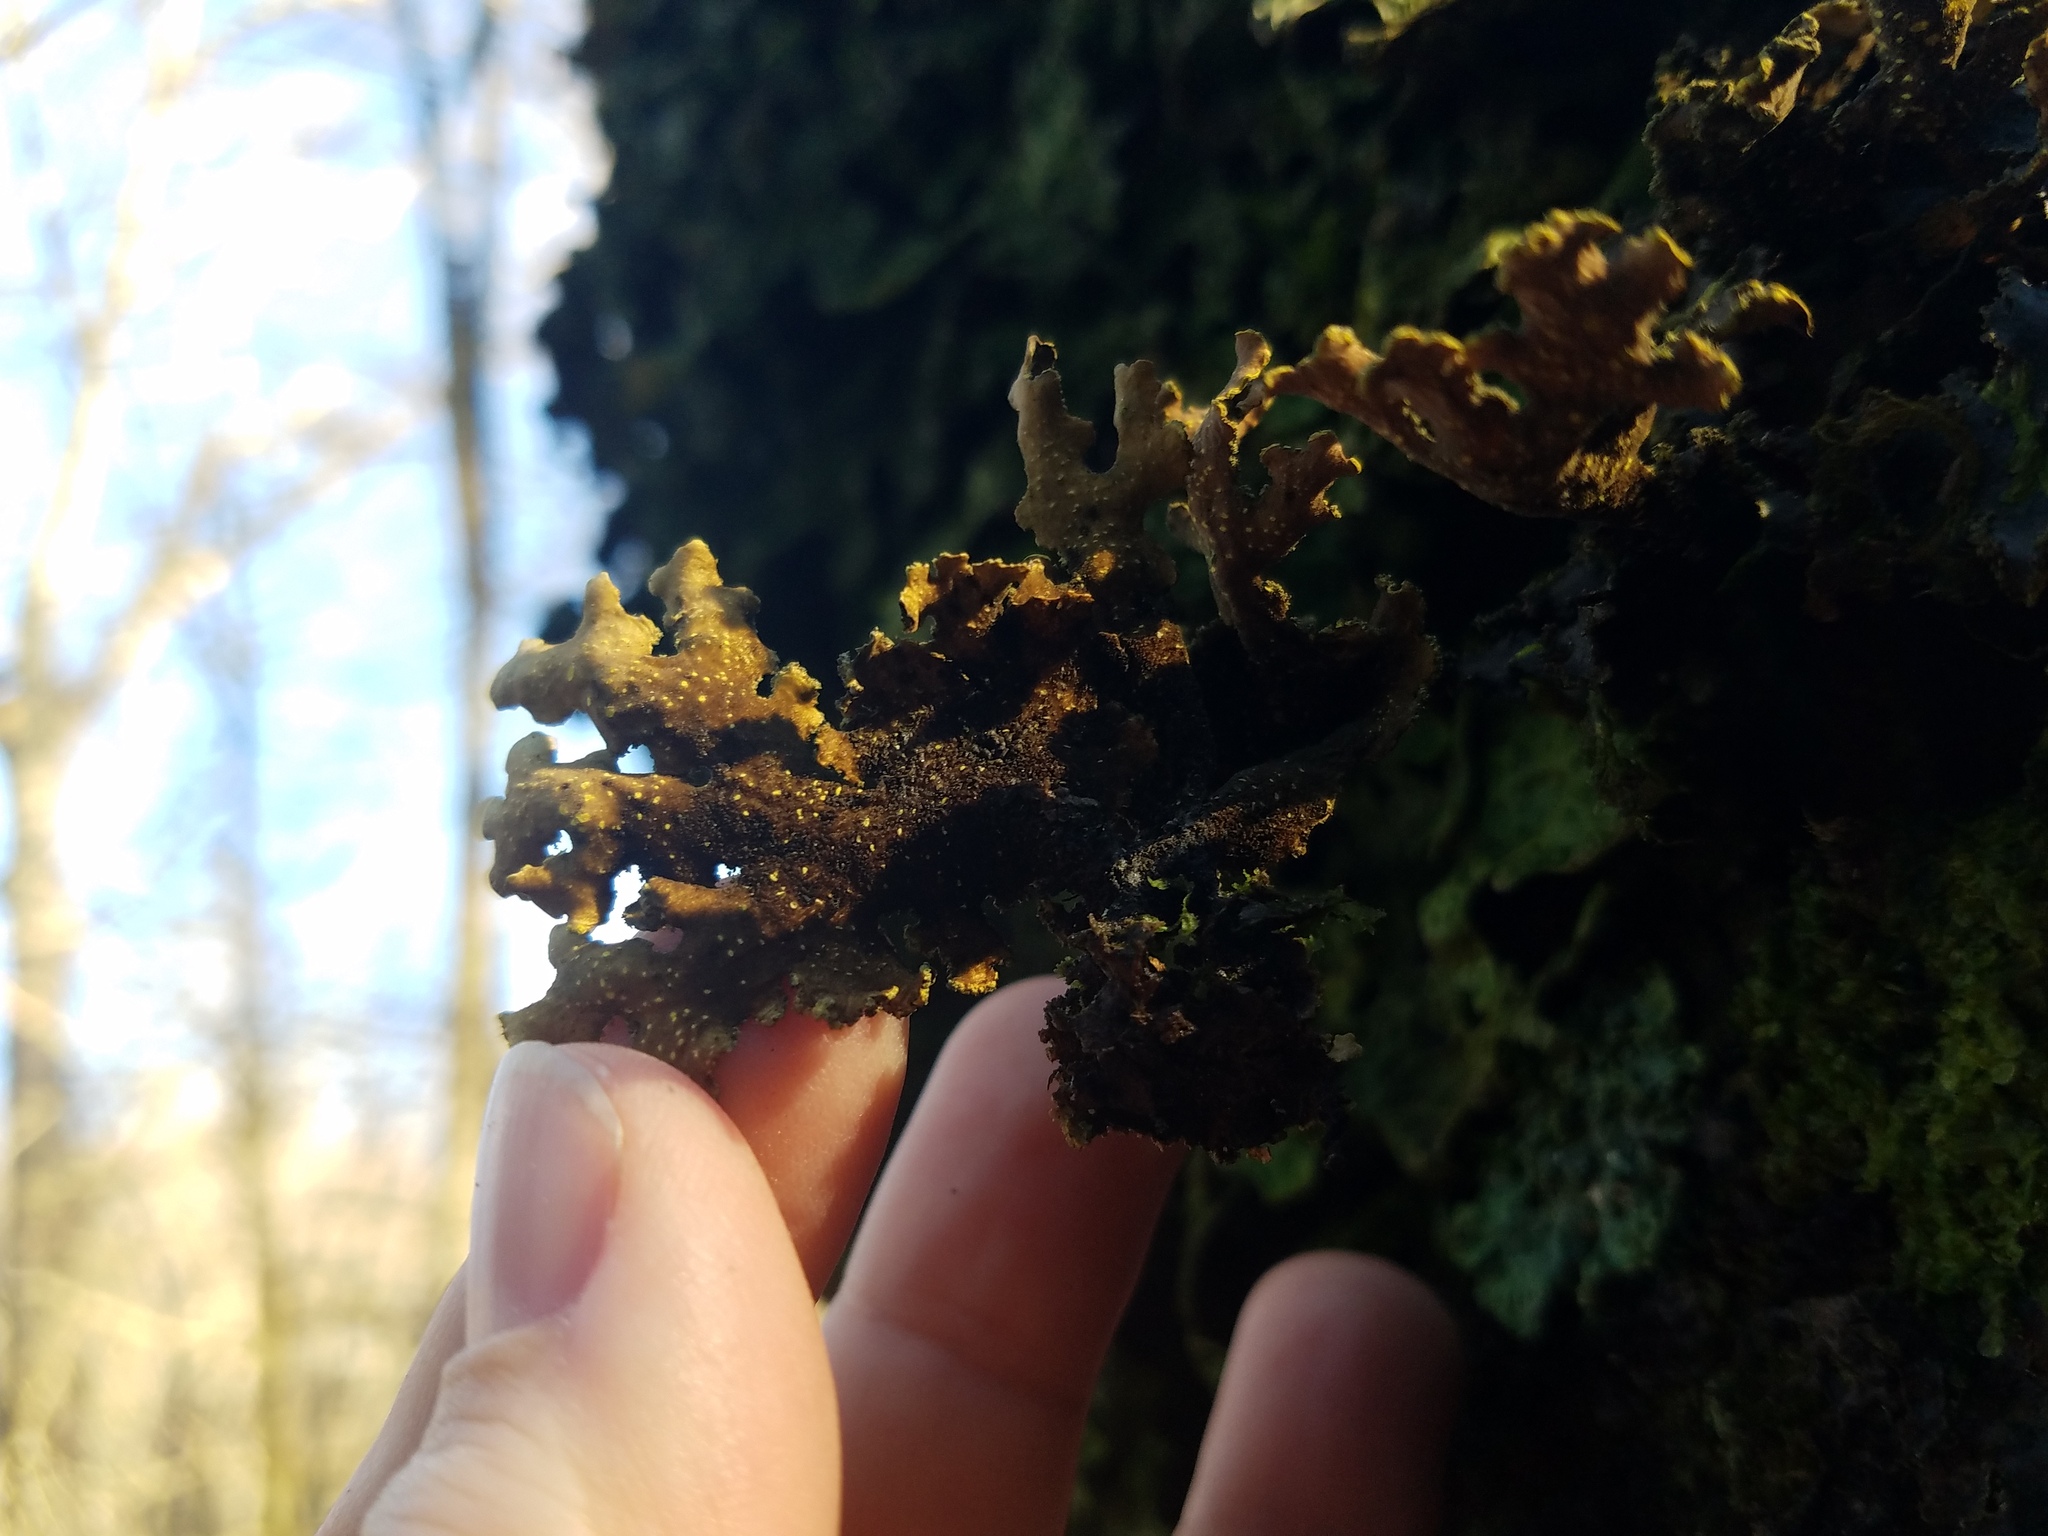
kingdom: Fungi
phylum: Ascomycota
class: Lecanoromycetes
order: Peltigerales
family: Lobariaceae
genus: Pseudocyphellaria
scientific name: Pseudocyphellaria holarctica
